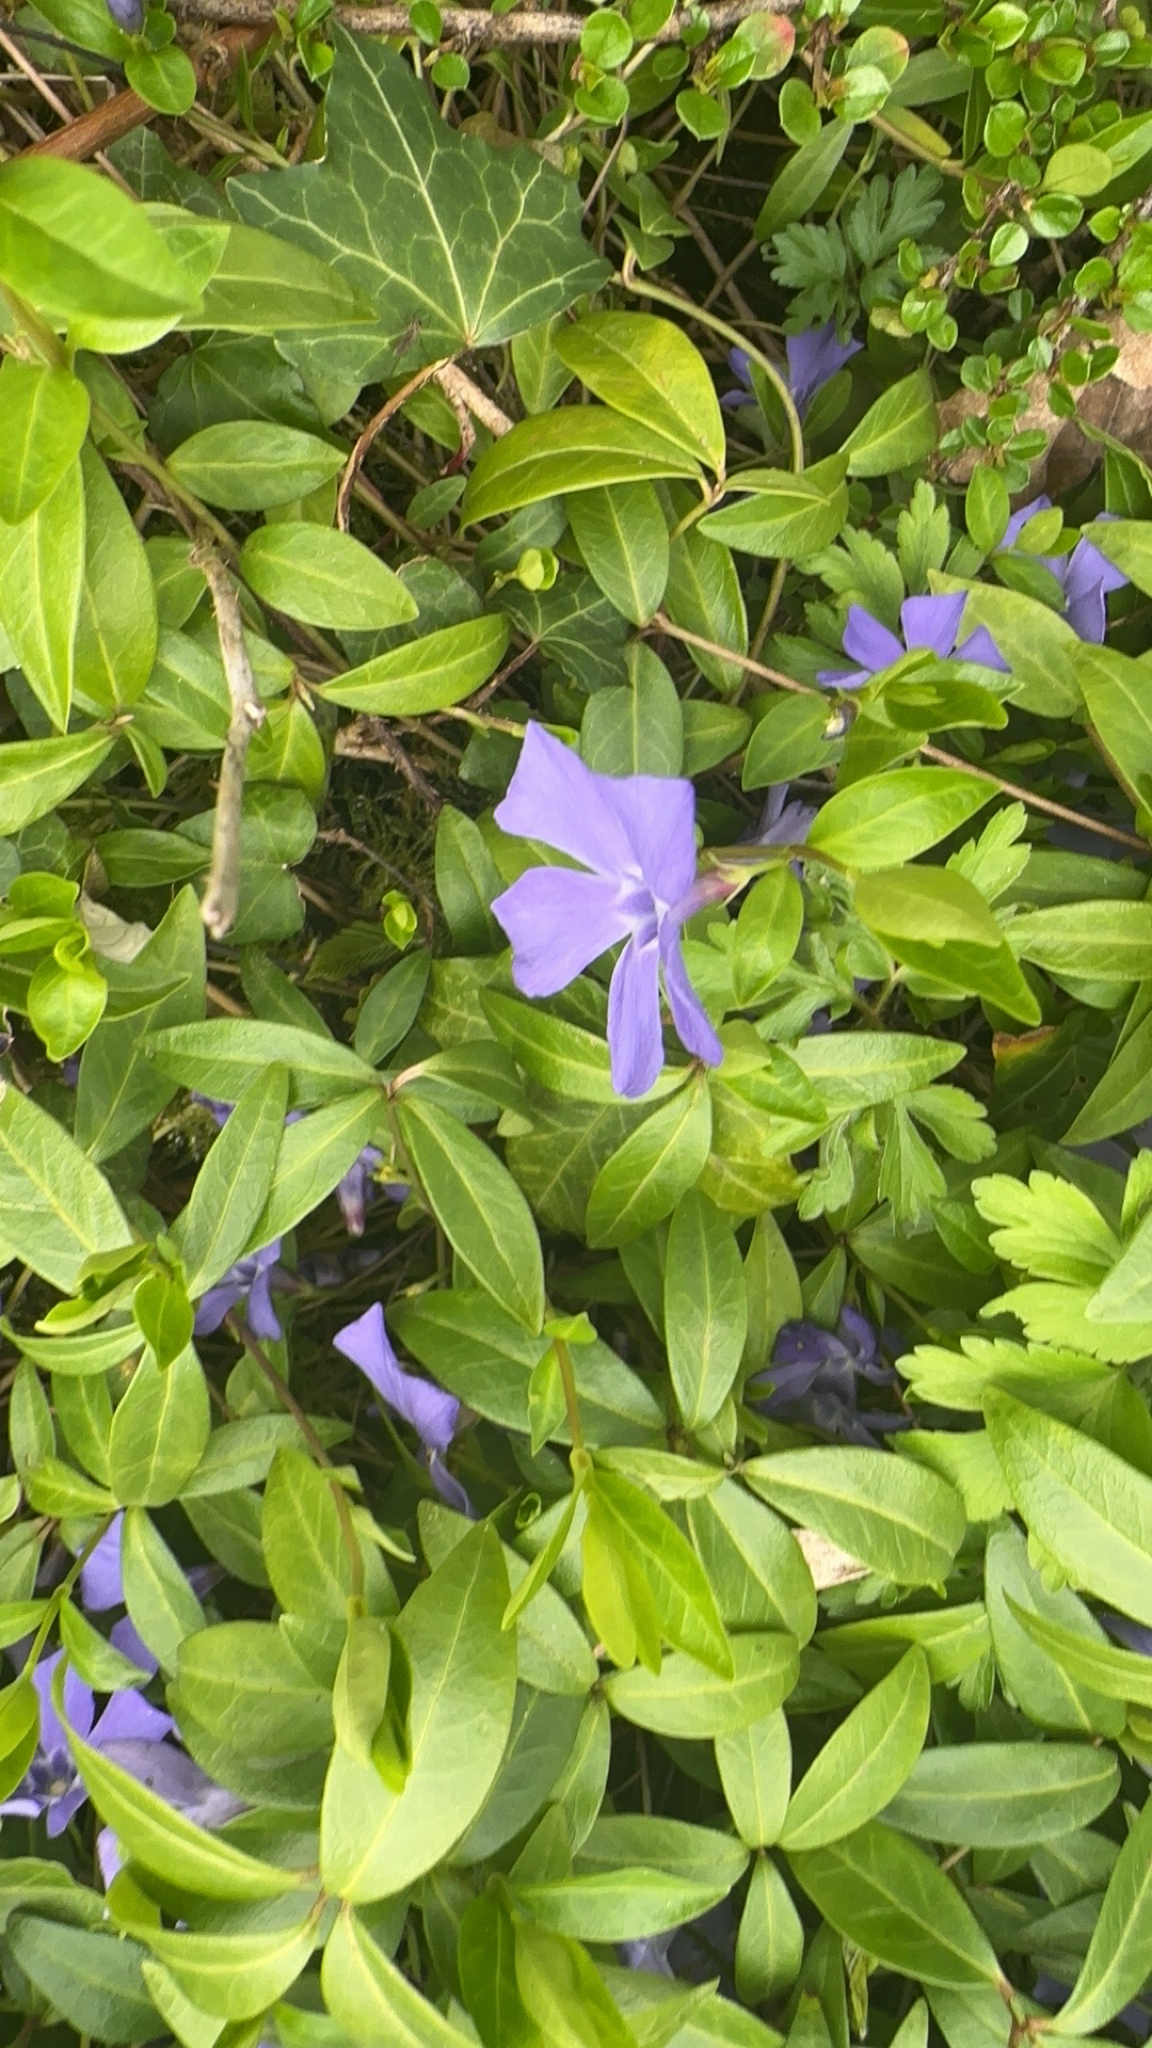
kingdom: Plantae
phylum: Tracheophyta
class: Magnoliopsida
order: Gentianales
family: Apocynaceae
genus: Vinca
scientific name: Vinca minor
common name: Lesser periwinkle
